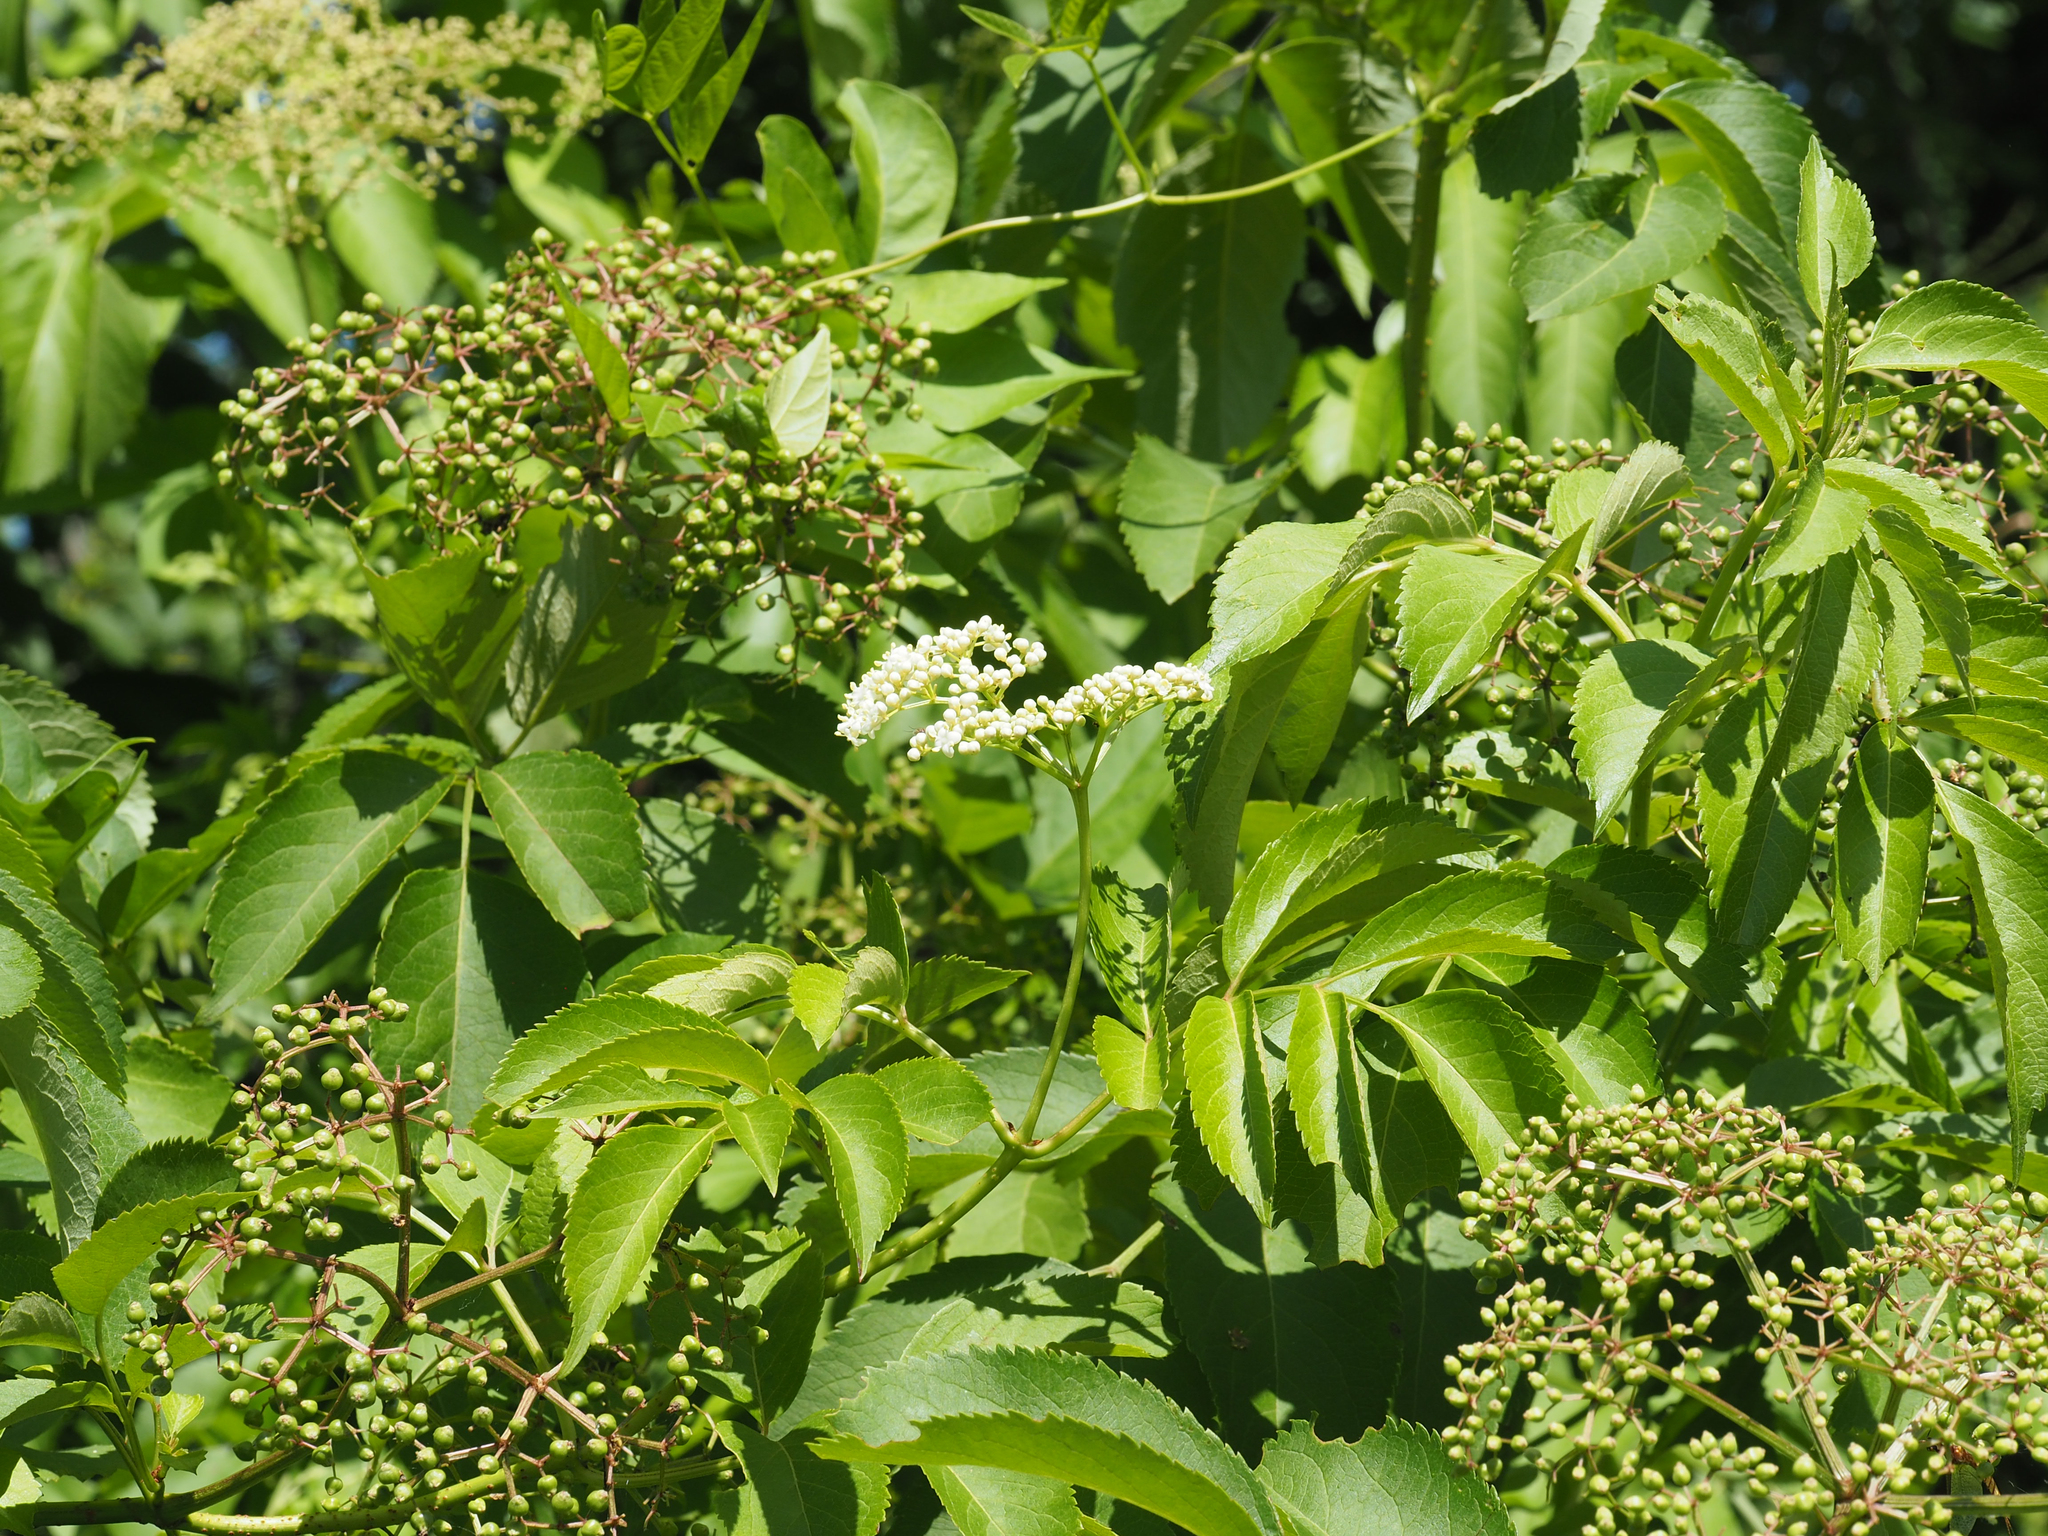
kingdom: Plantae
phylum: Tracheophyta
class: Magnoliopsida
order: Dipsacales
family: Viburnaceae
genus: Sambucus
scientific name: Sambucus canadensis
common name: American elder
